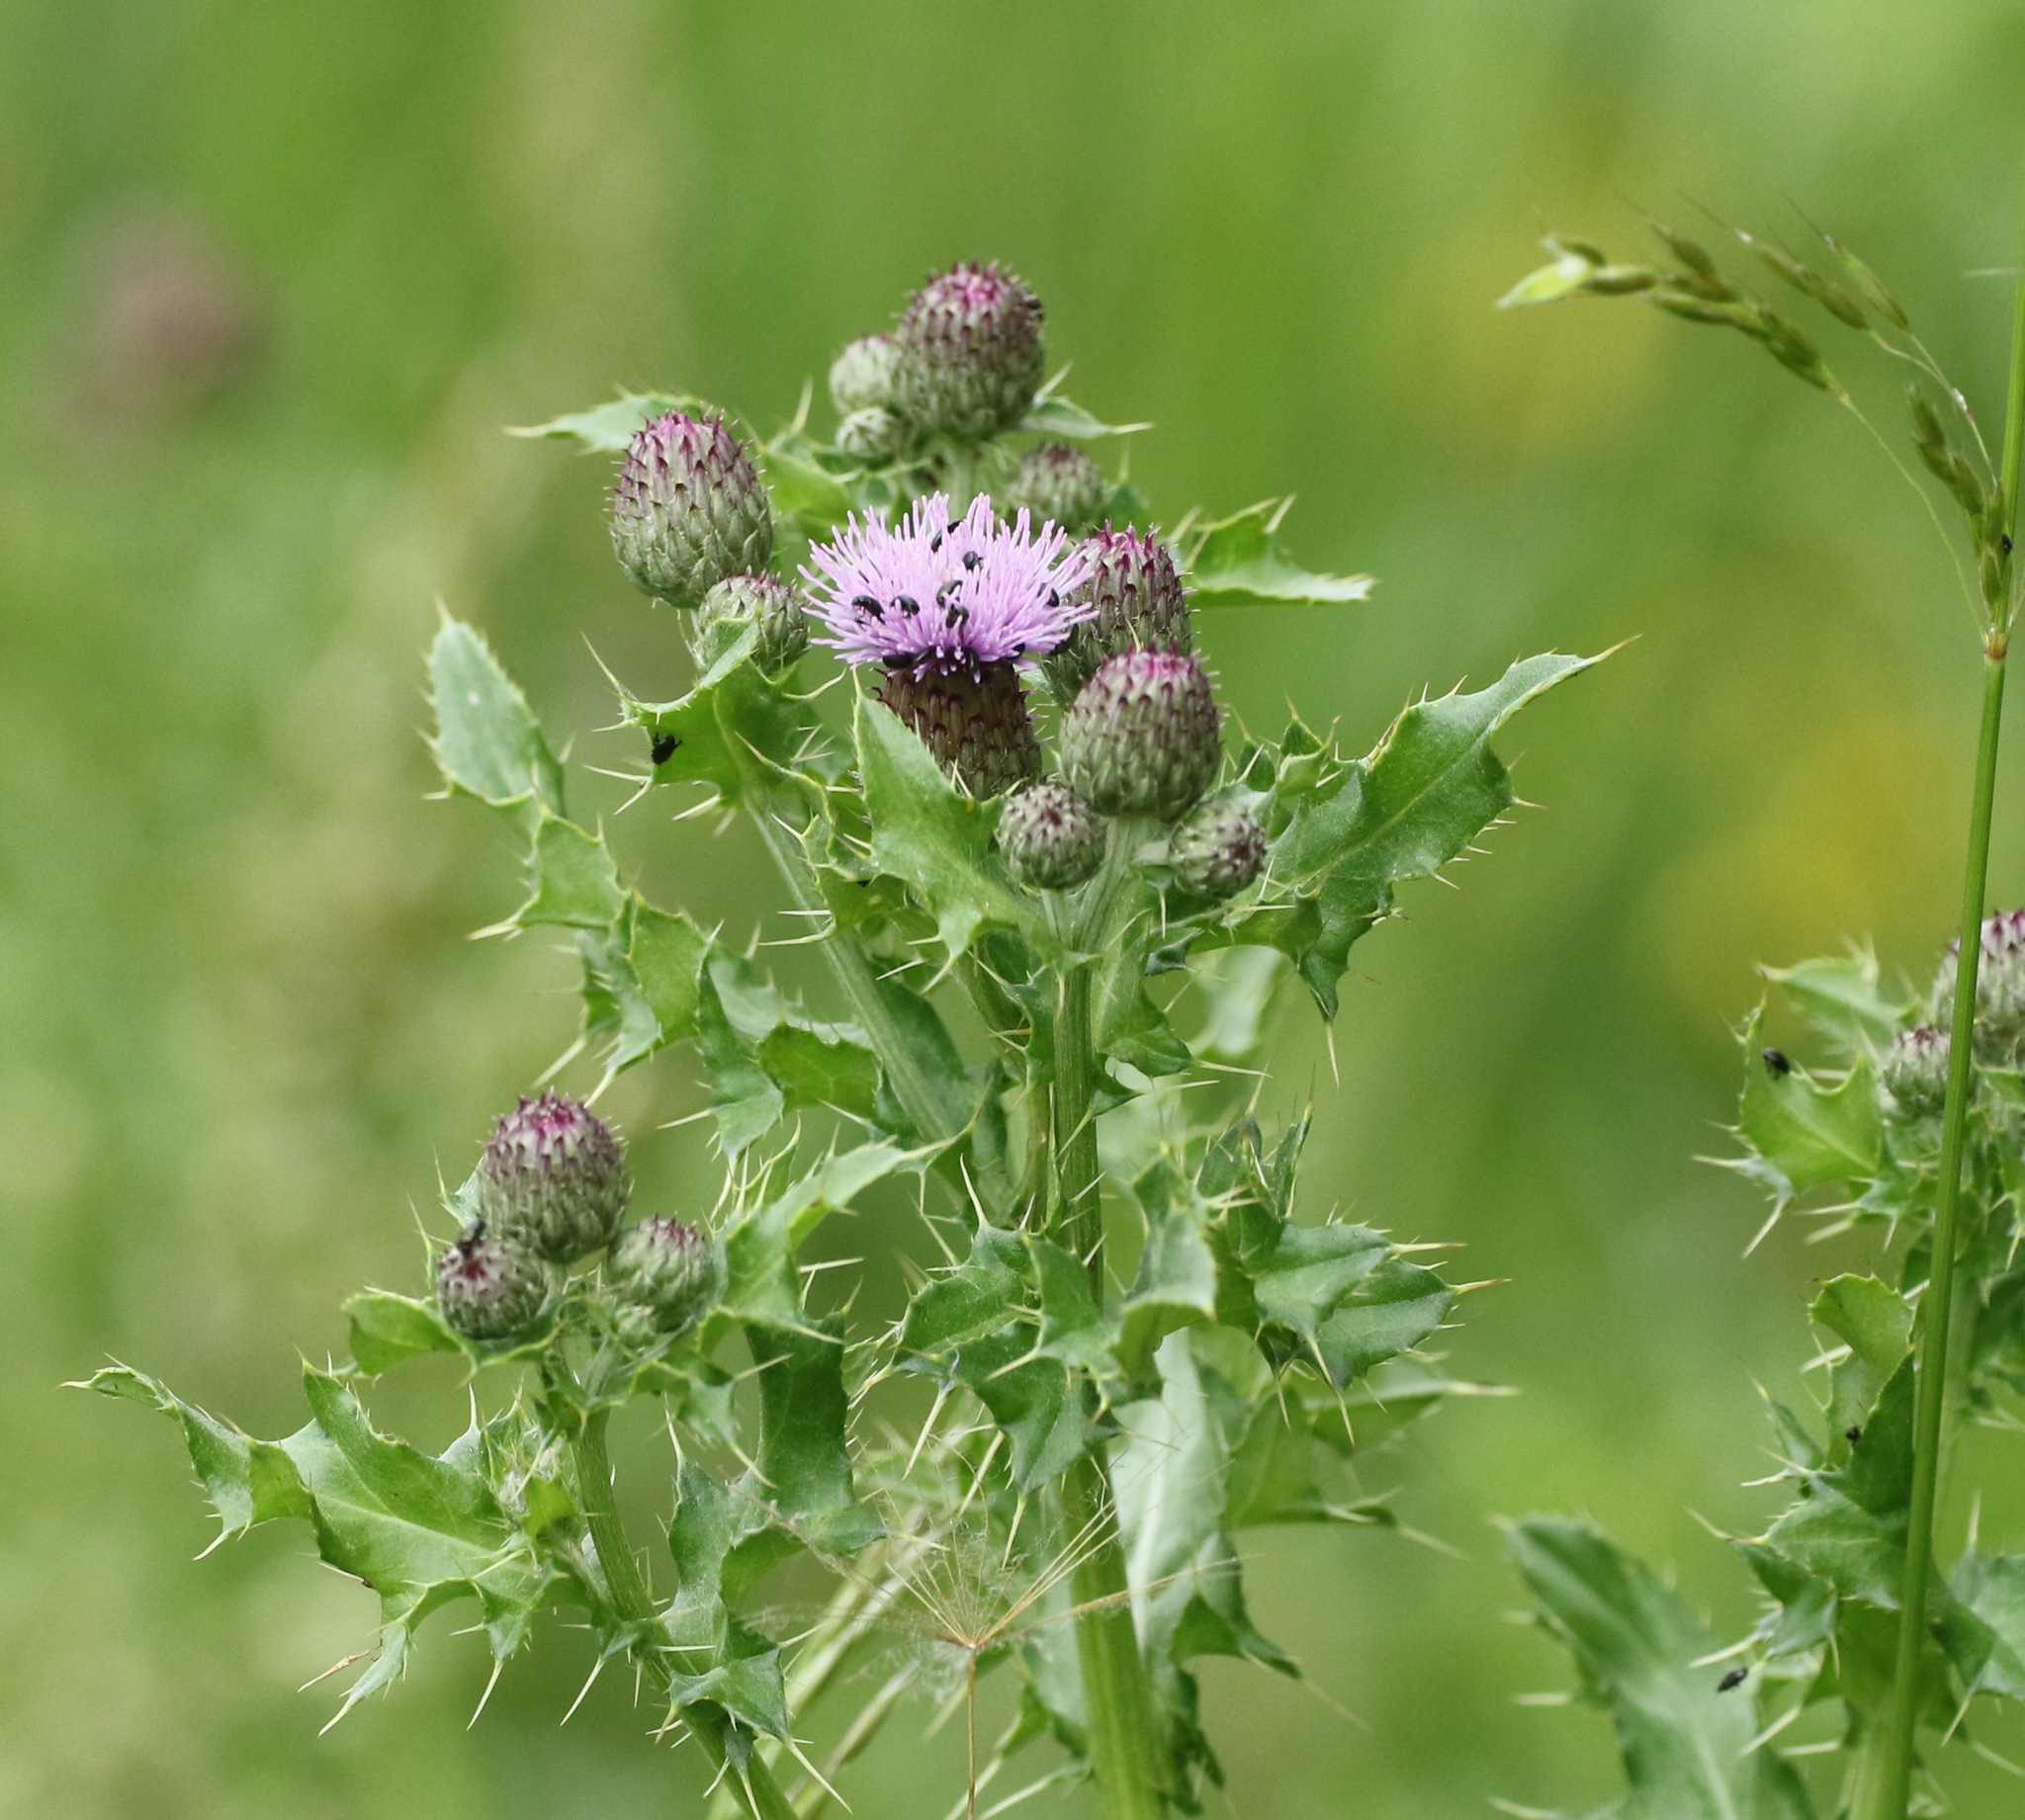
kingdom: Plantae
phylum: Tracheophyta
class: Magnoliopsida
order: Asterales
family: Asteraceae
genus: Cirsium
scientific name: Cirsium arvense
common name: Creeping thistle
